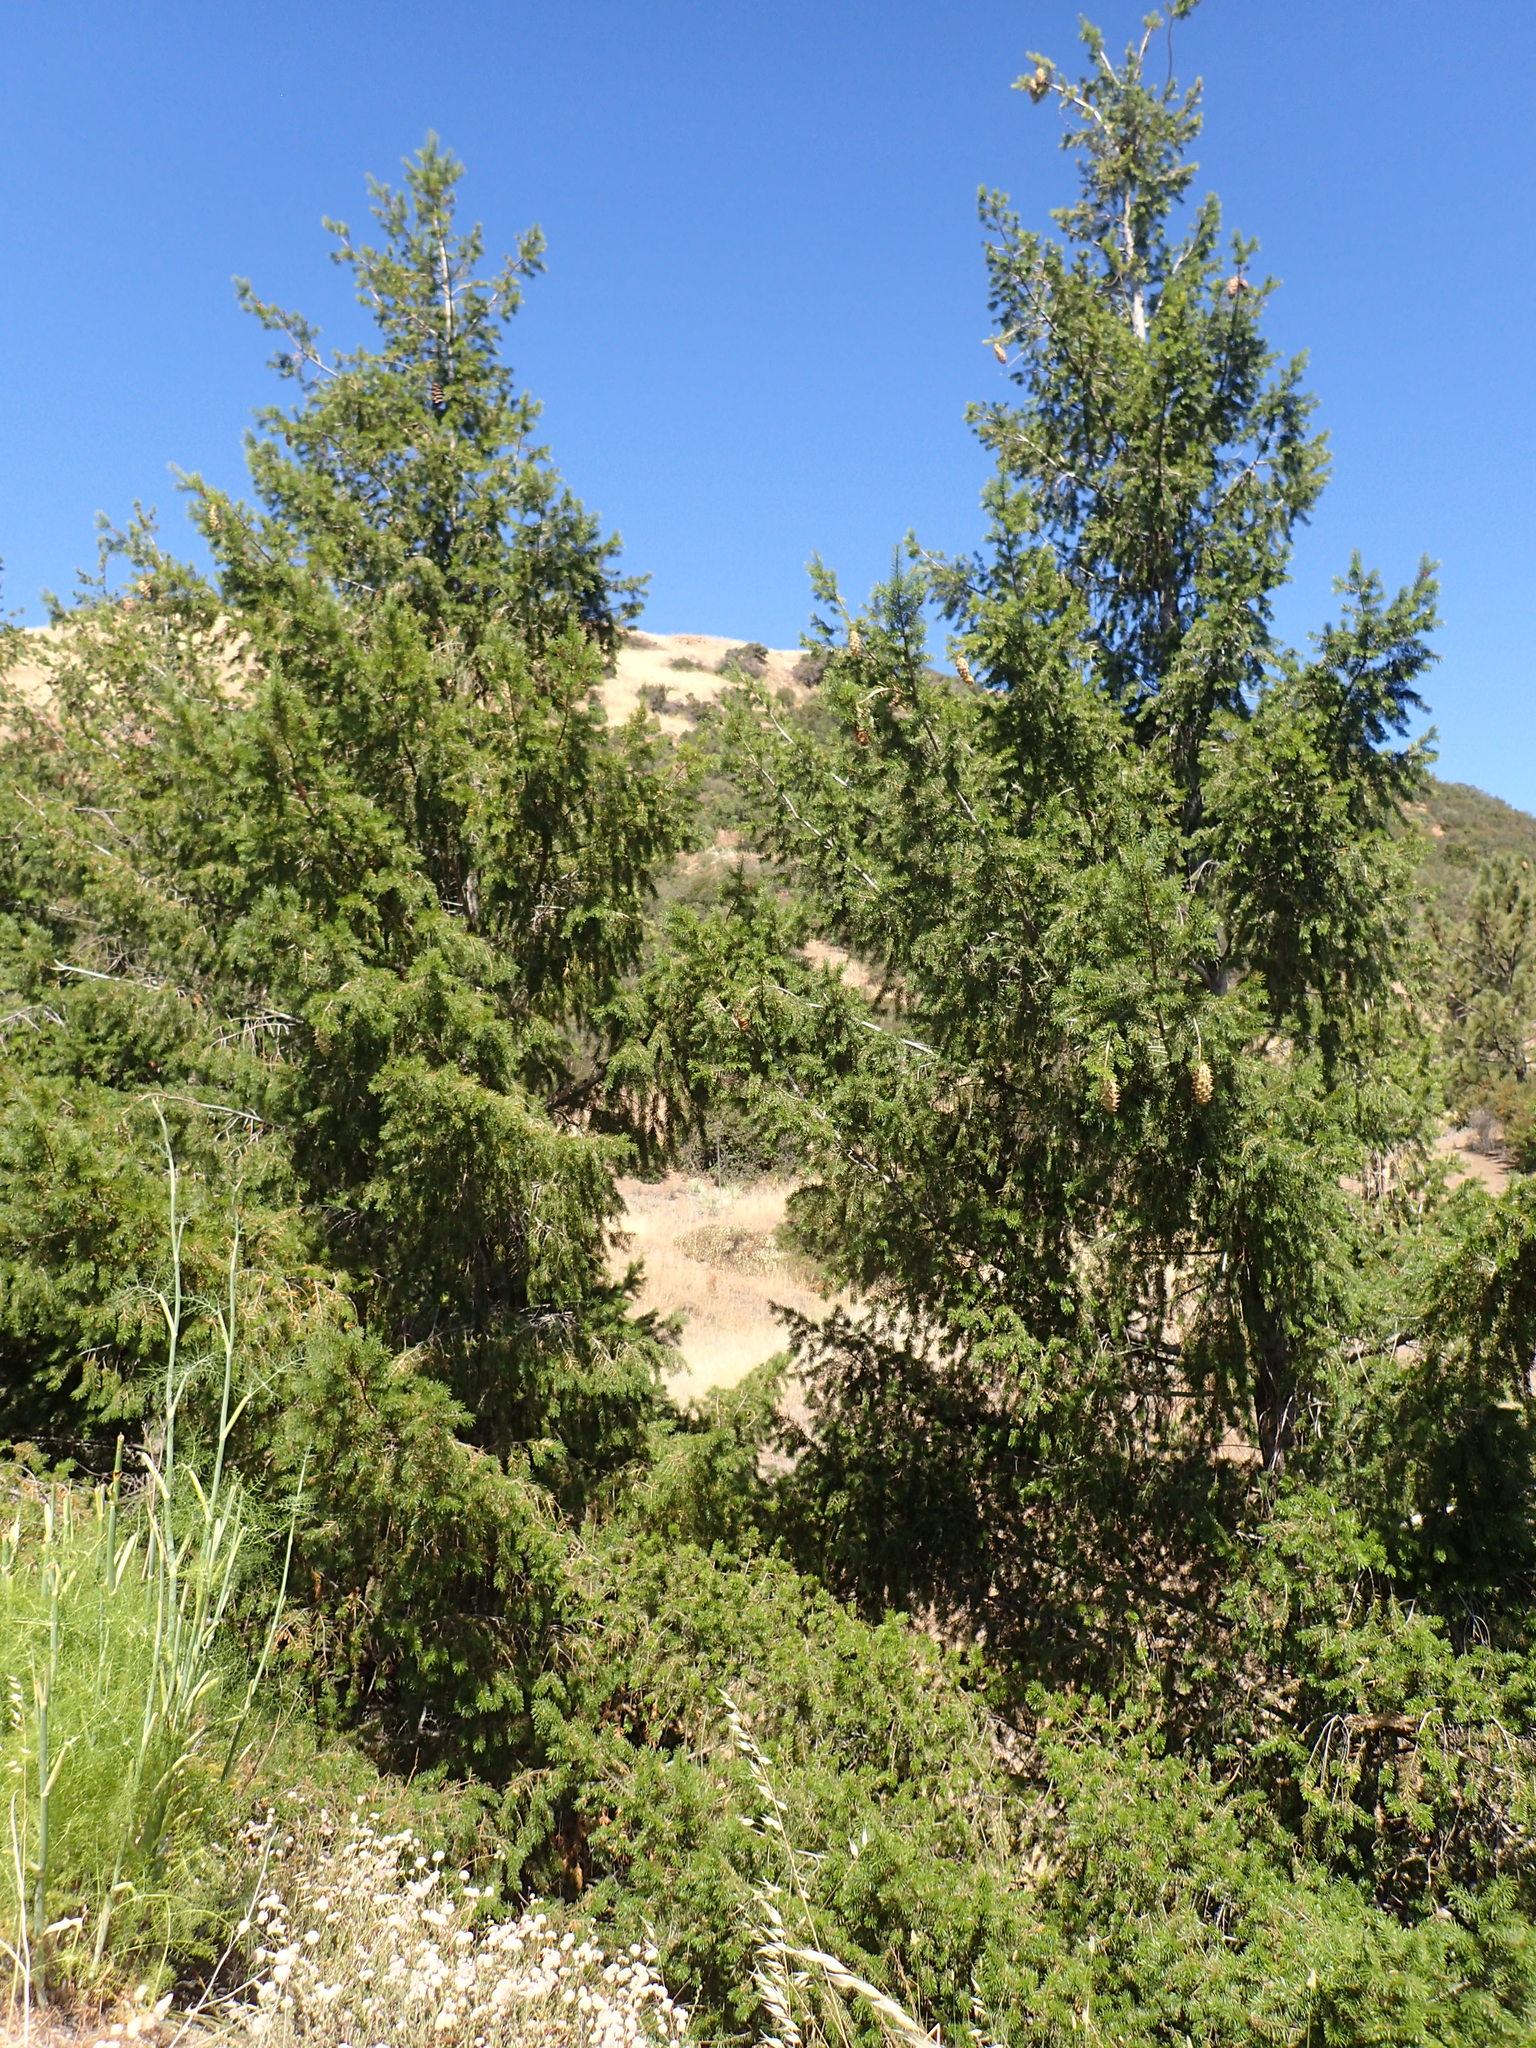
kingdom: Plantae
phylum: Tracheophyta
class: Pinopsida
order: Pinales
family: Pinaceae
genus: Pseudotsuga
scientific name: Pseudotsuga macrocarpa
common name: Big-cone douglas-fir
